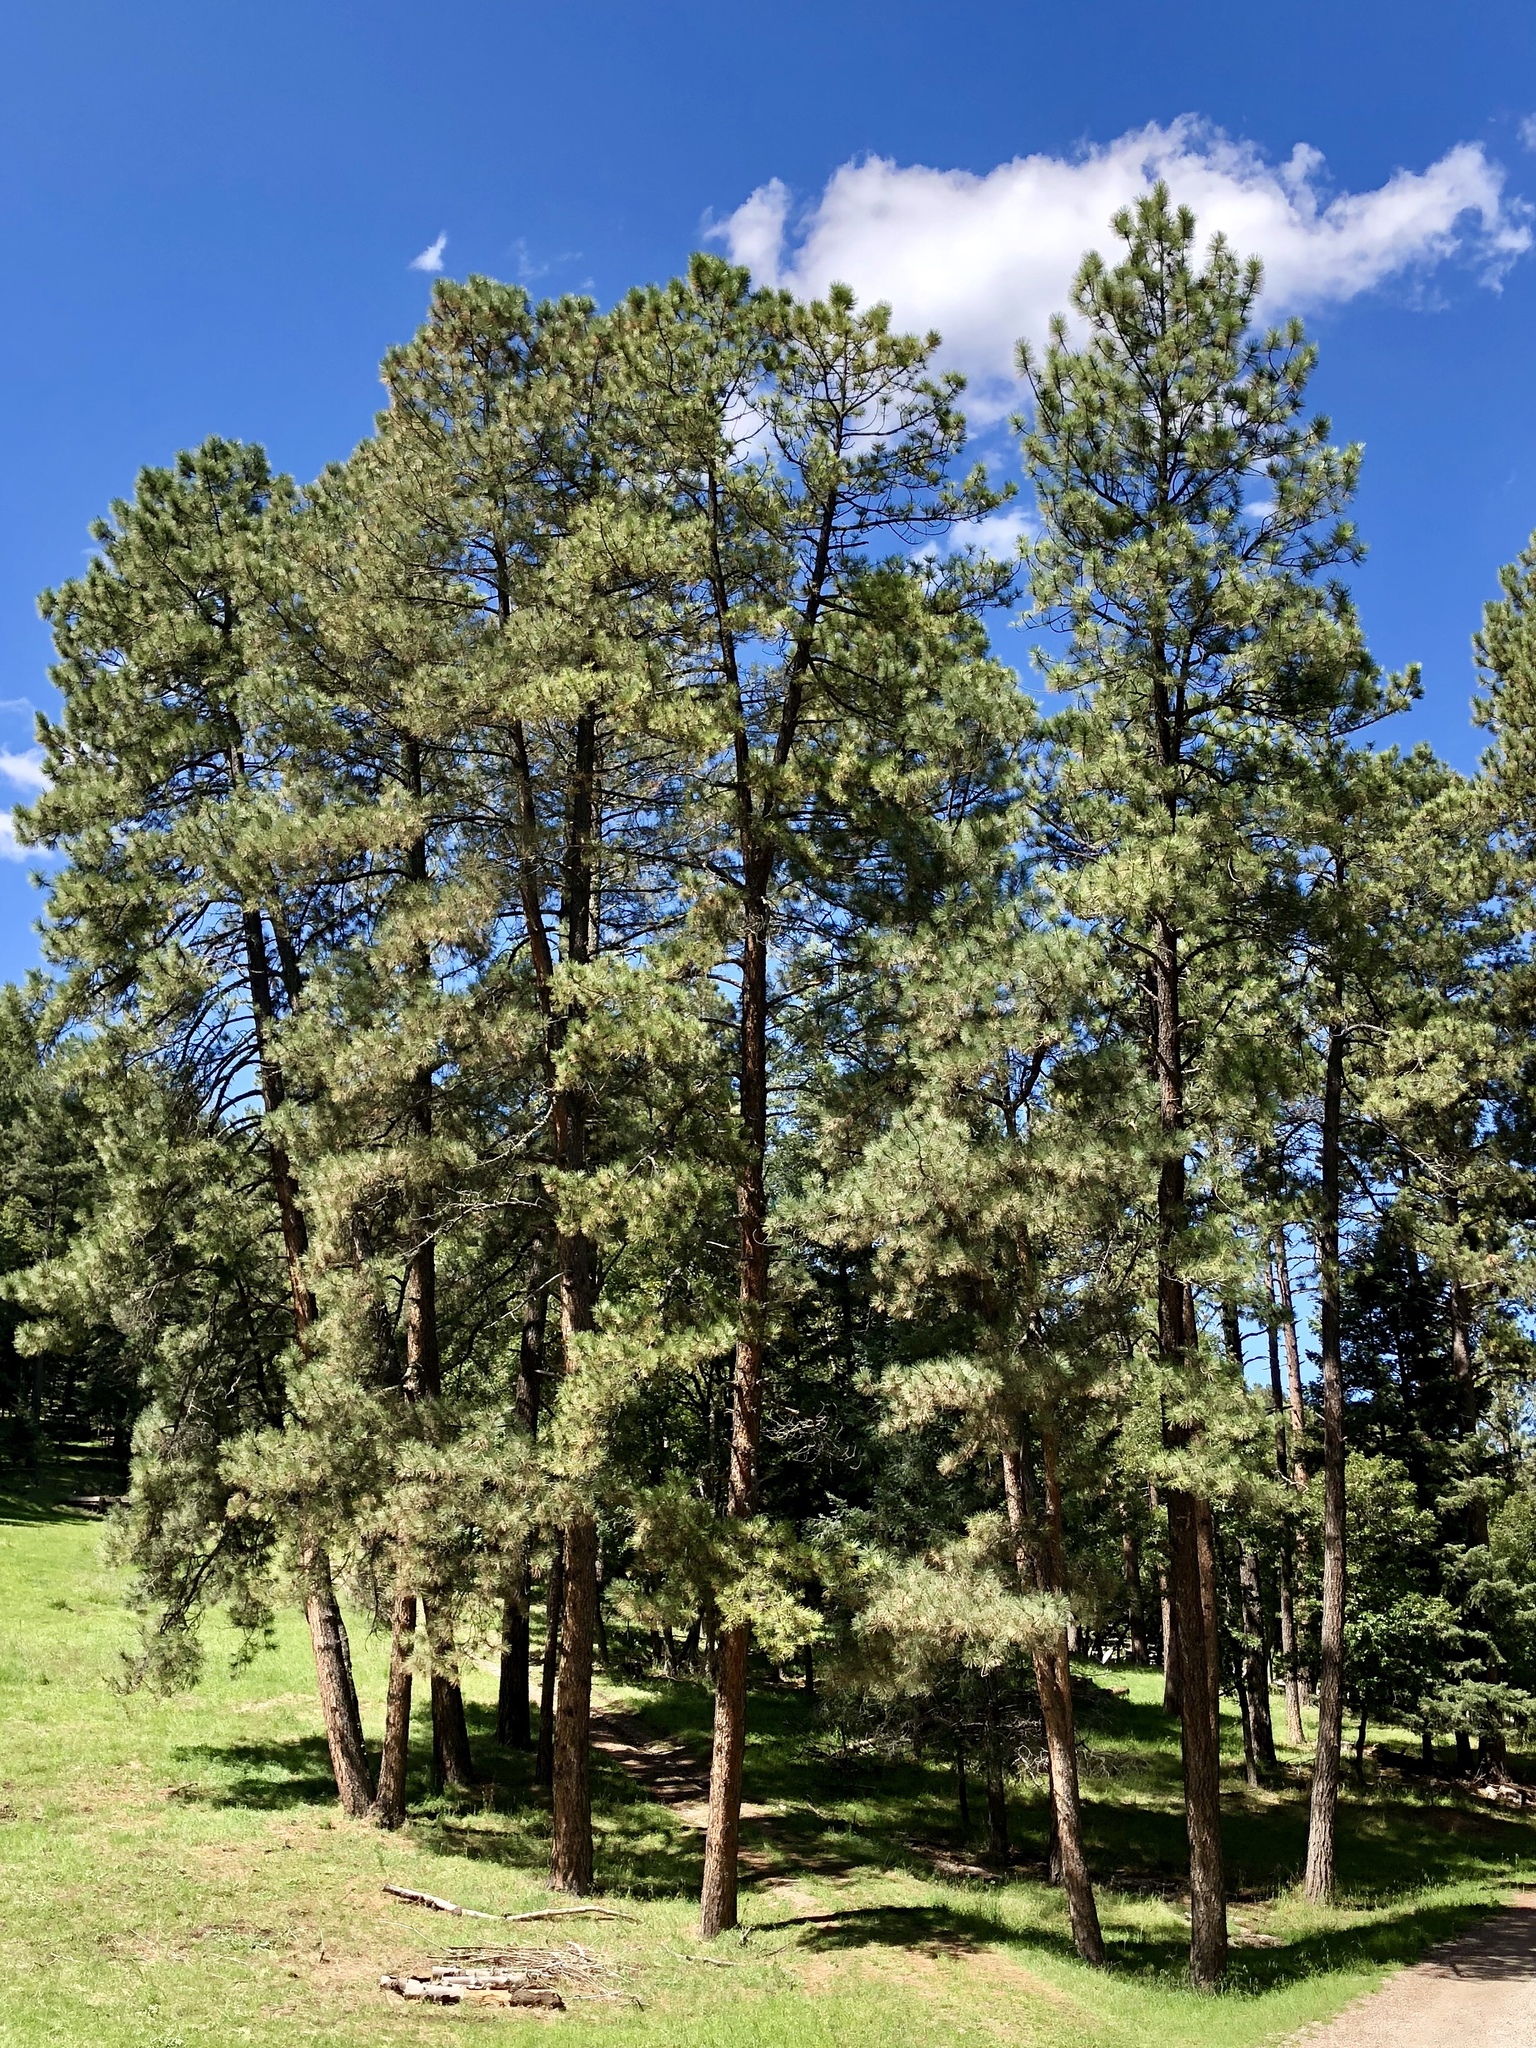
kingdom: Plantae
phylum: Tracheophyta
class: Pinopsida
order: Pinales
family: Pinaceae
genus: Pinus
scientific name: Pinus ponderosa
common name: Western yellow-pine
